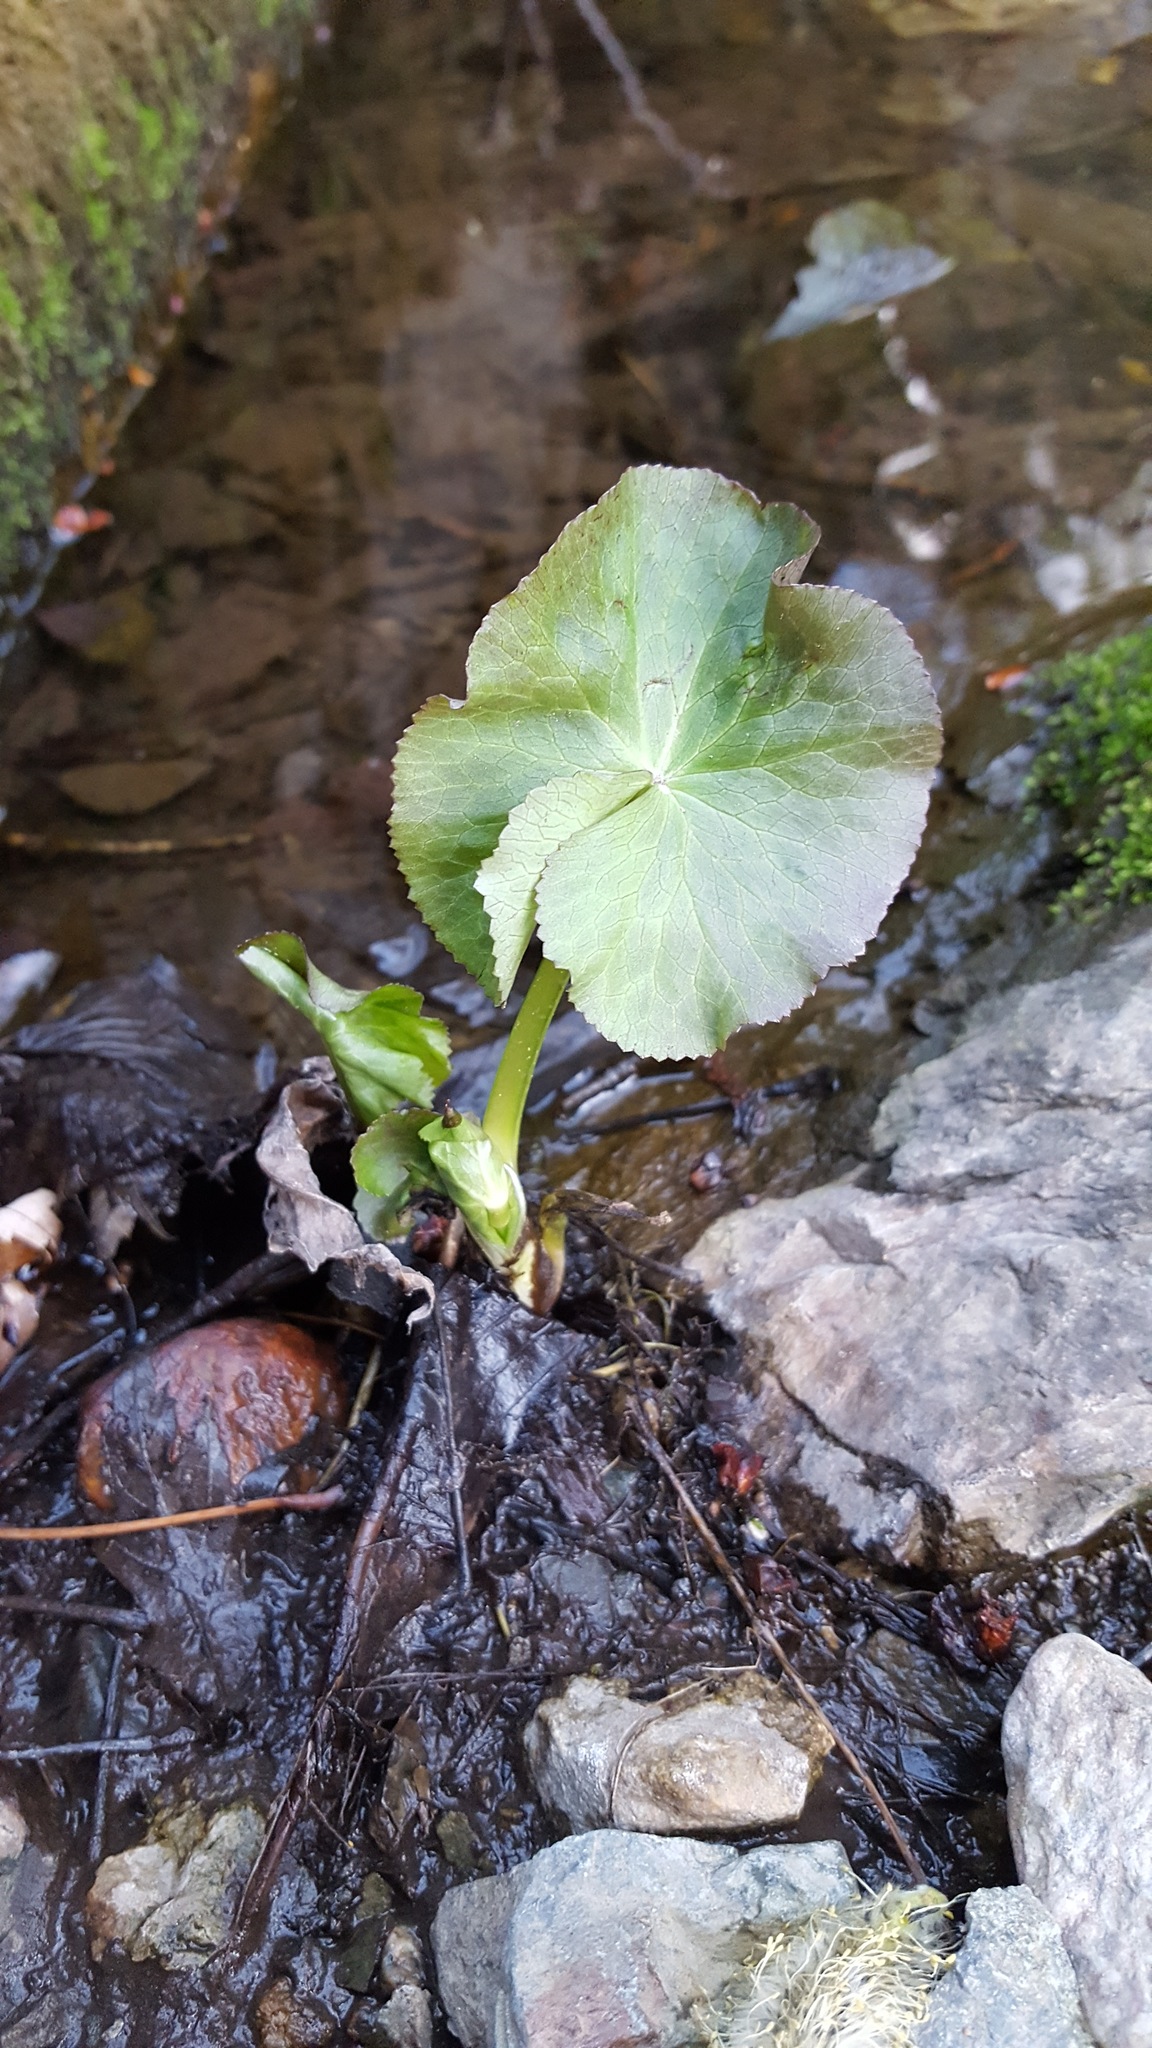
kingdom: Plantae
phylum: Tracheophyta
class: Magnoliopsida
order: Ranunculales
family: Ranunculaceae
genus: Caltha
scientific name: Caltha palustris
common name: Marsh marigold
